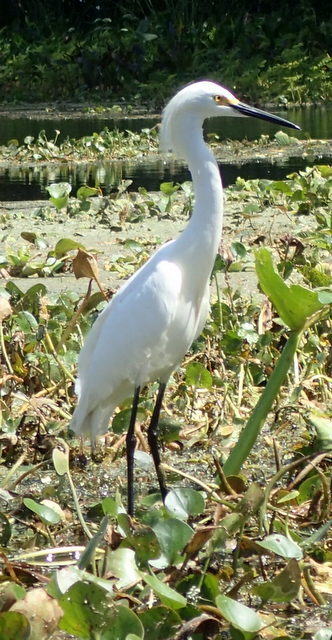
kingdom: Animalia
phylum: Chordata
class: Aves
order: Pelecaniformes
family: Ardeidae
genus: Egretta
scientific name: Egretta thula
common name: Snowy egret
